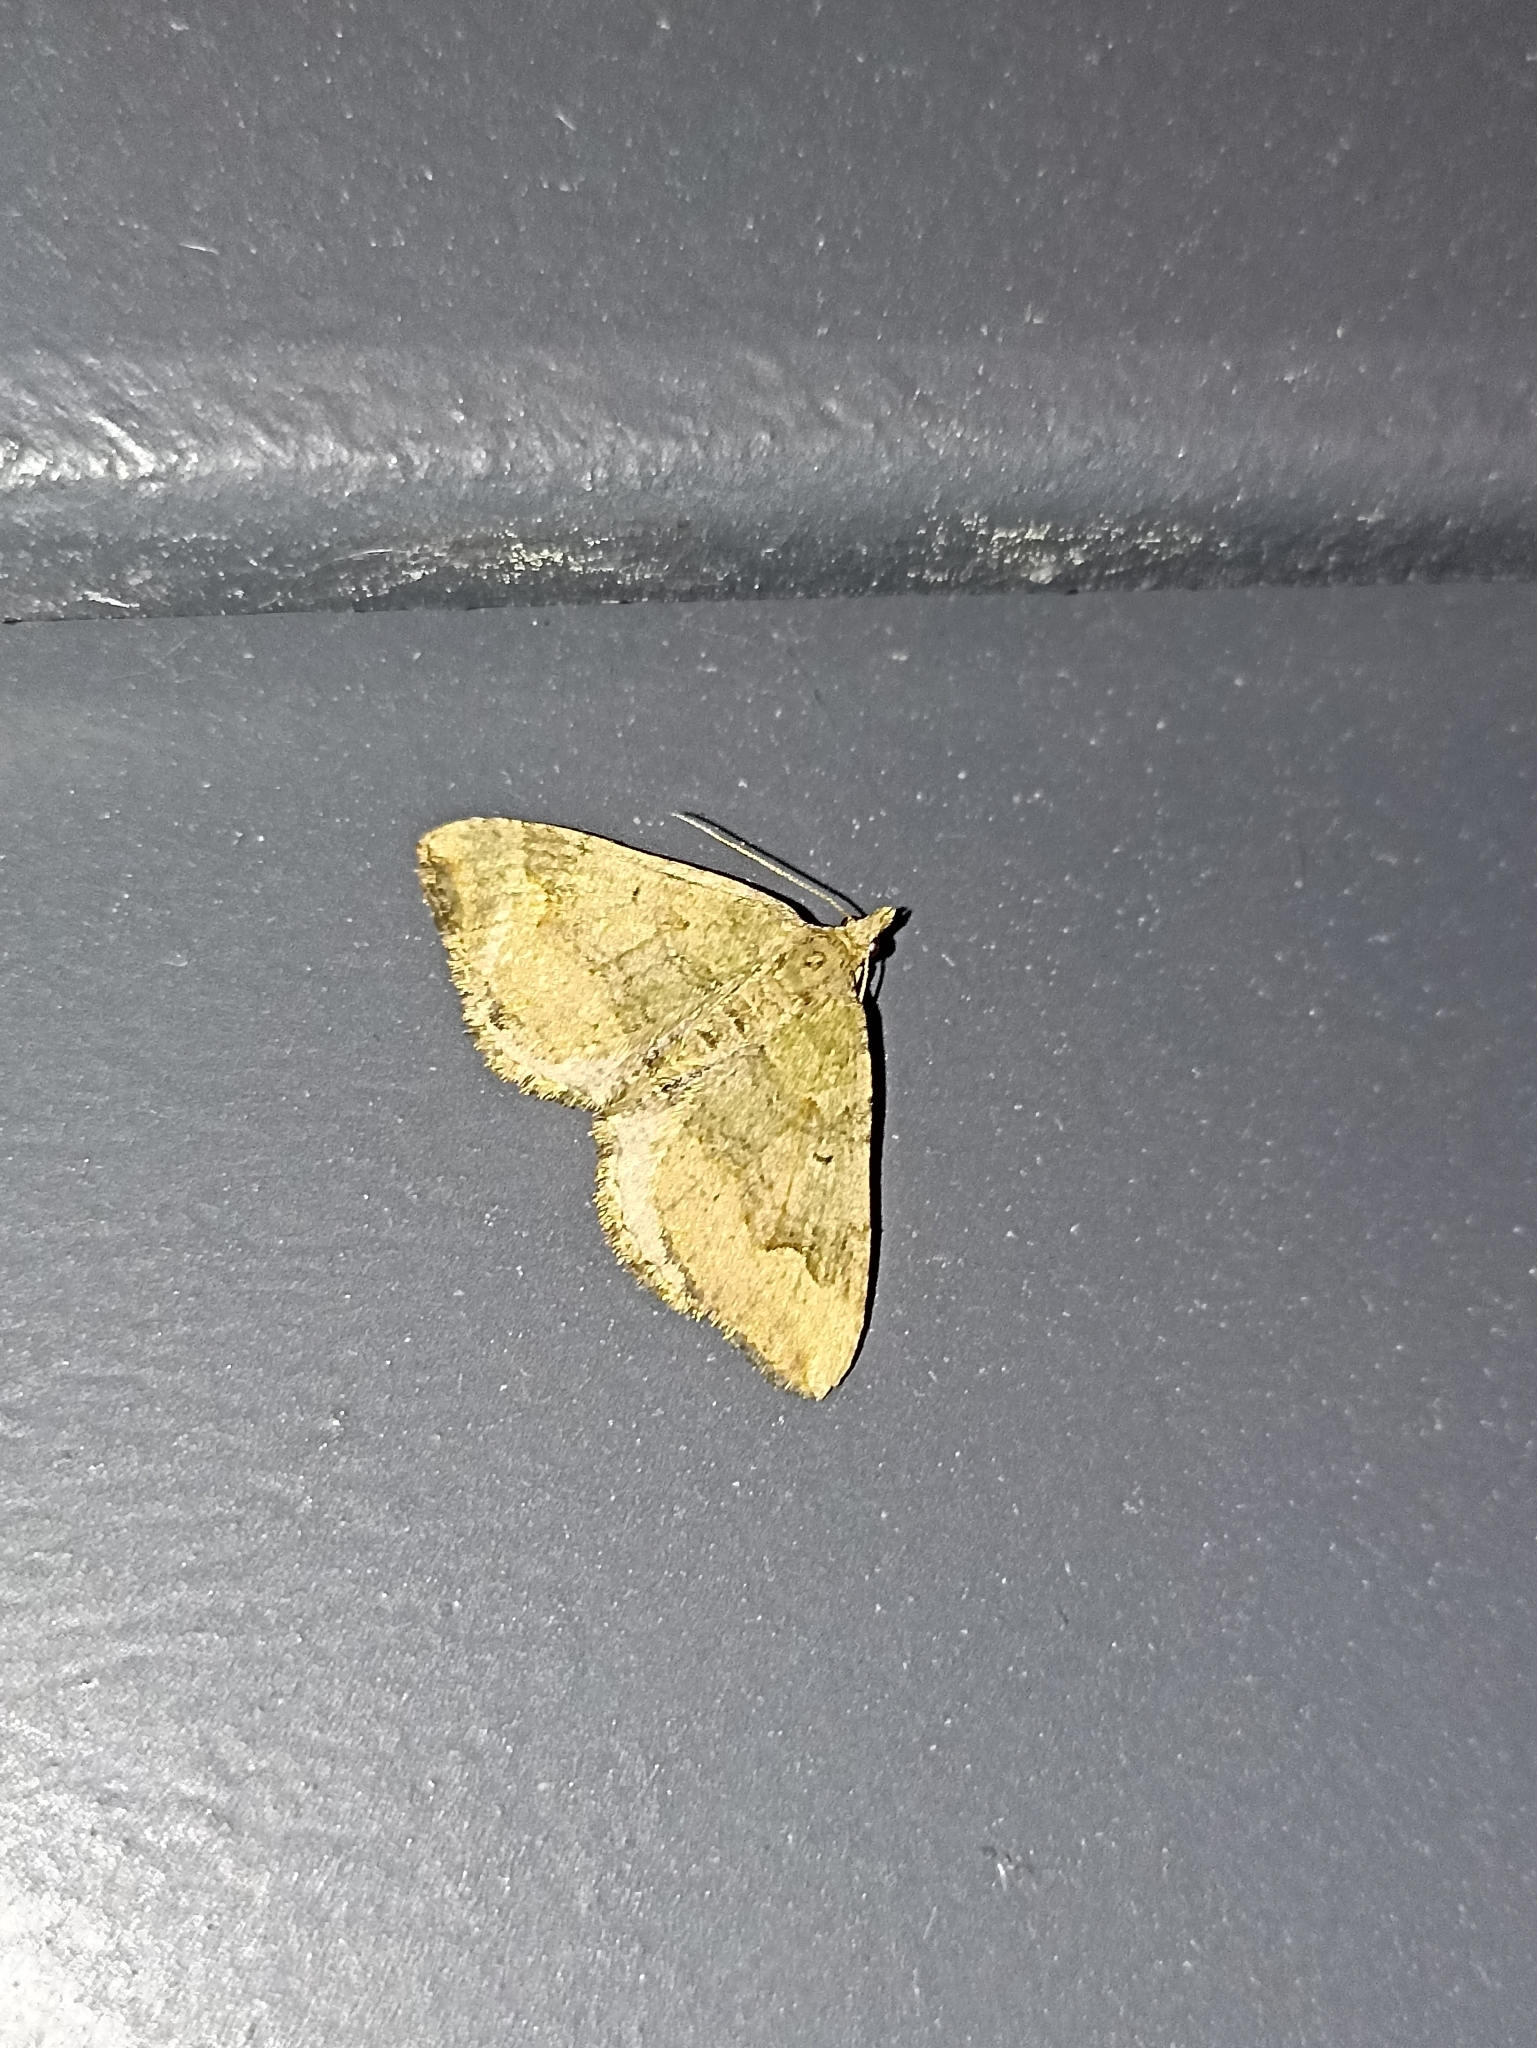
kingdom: Animalia
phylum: Arthropoda
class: Insecta
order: Lepidoptera
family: Geometridae
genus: Epyaxa
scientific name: Epyaxa rosearia
